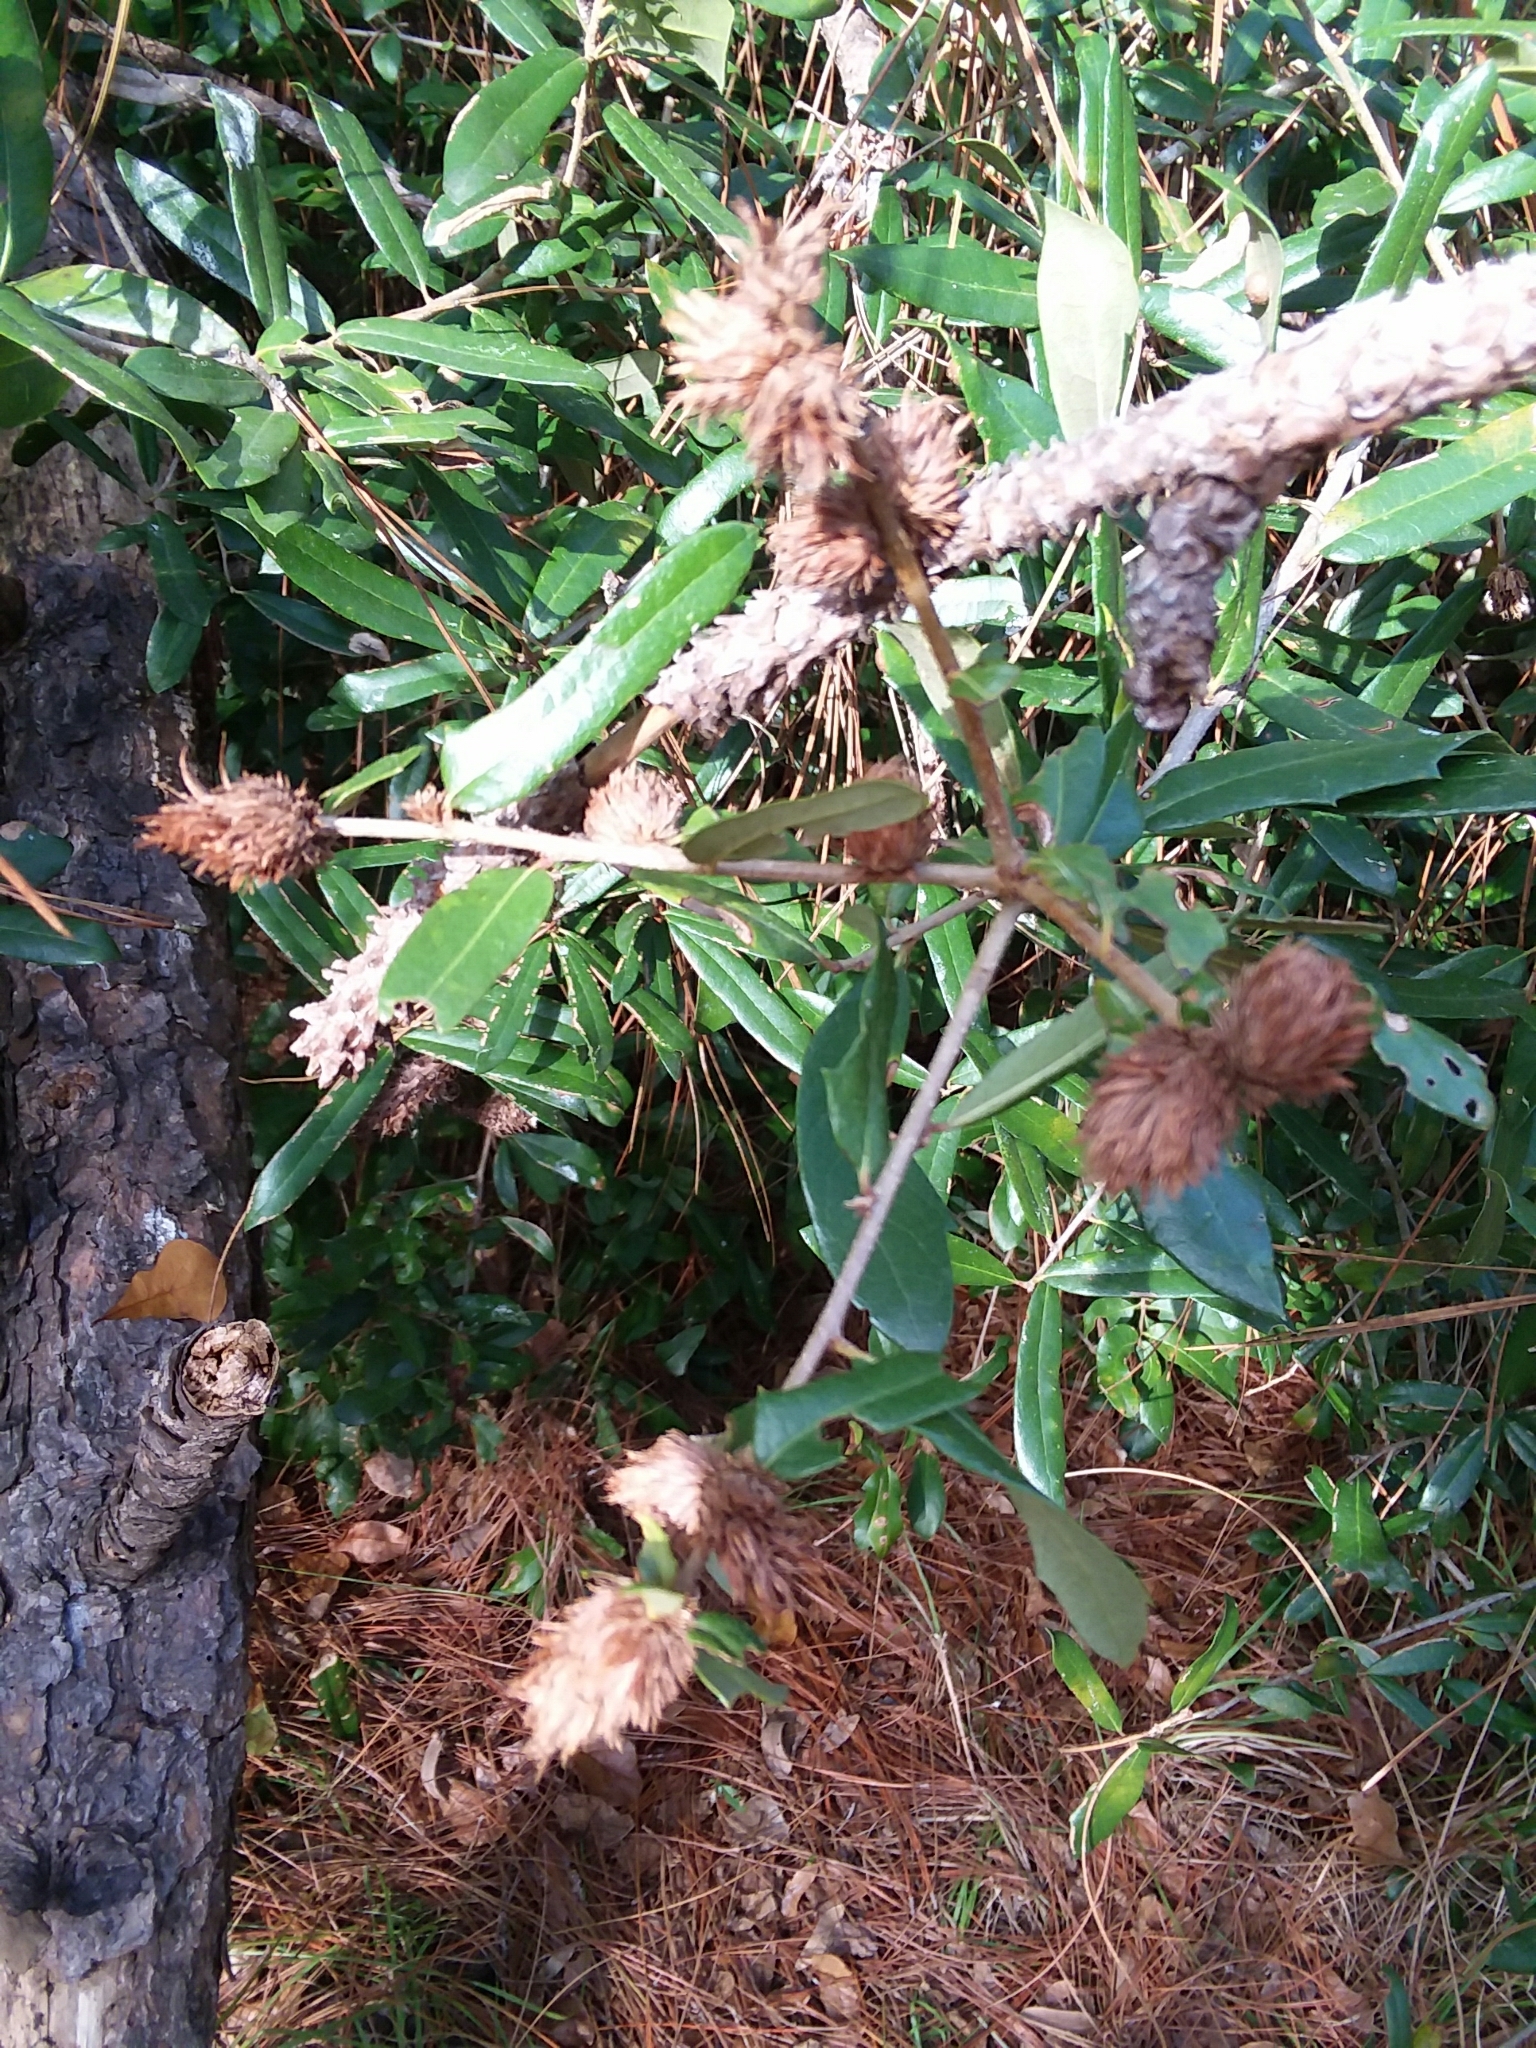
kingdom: Animalia
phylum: Arthropoda
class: Insecta
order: Hymenoptera
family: Cynipidae
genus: Andricus
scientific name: Andricus quercusfoliatus
